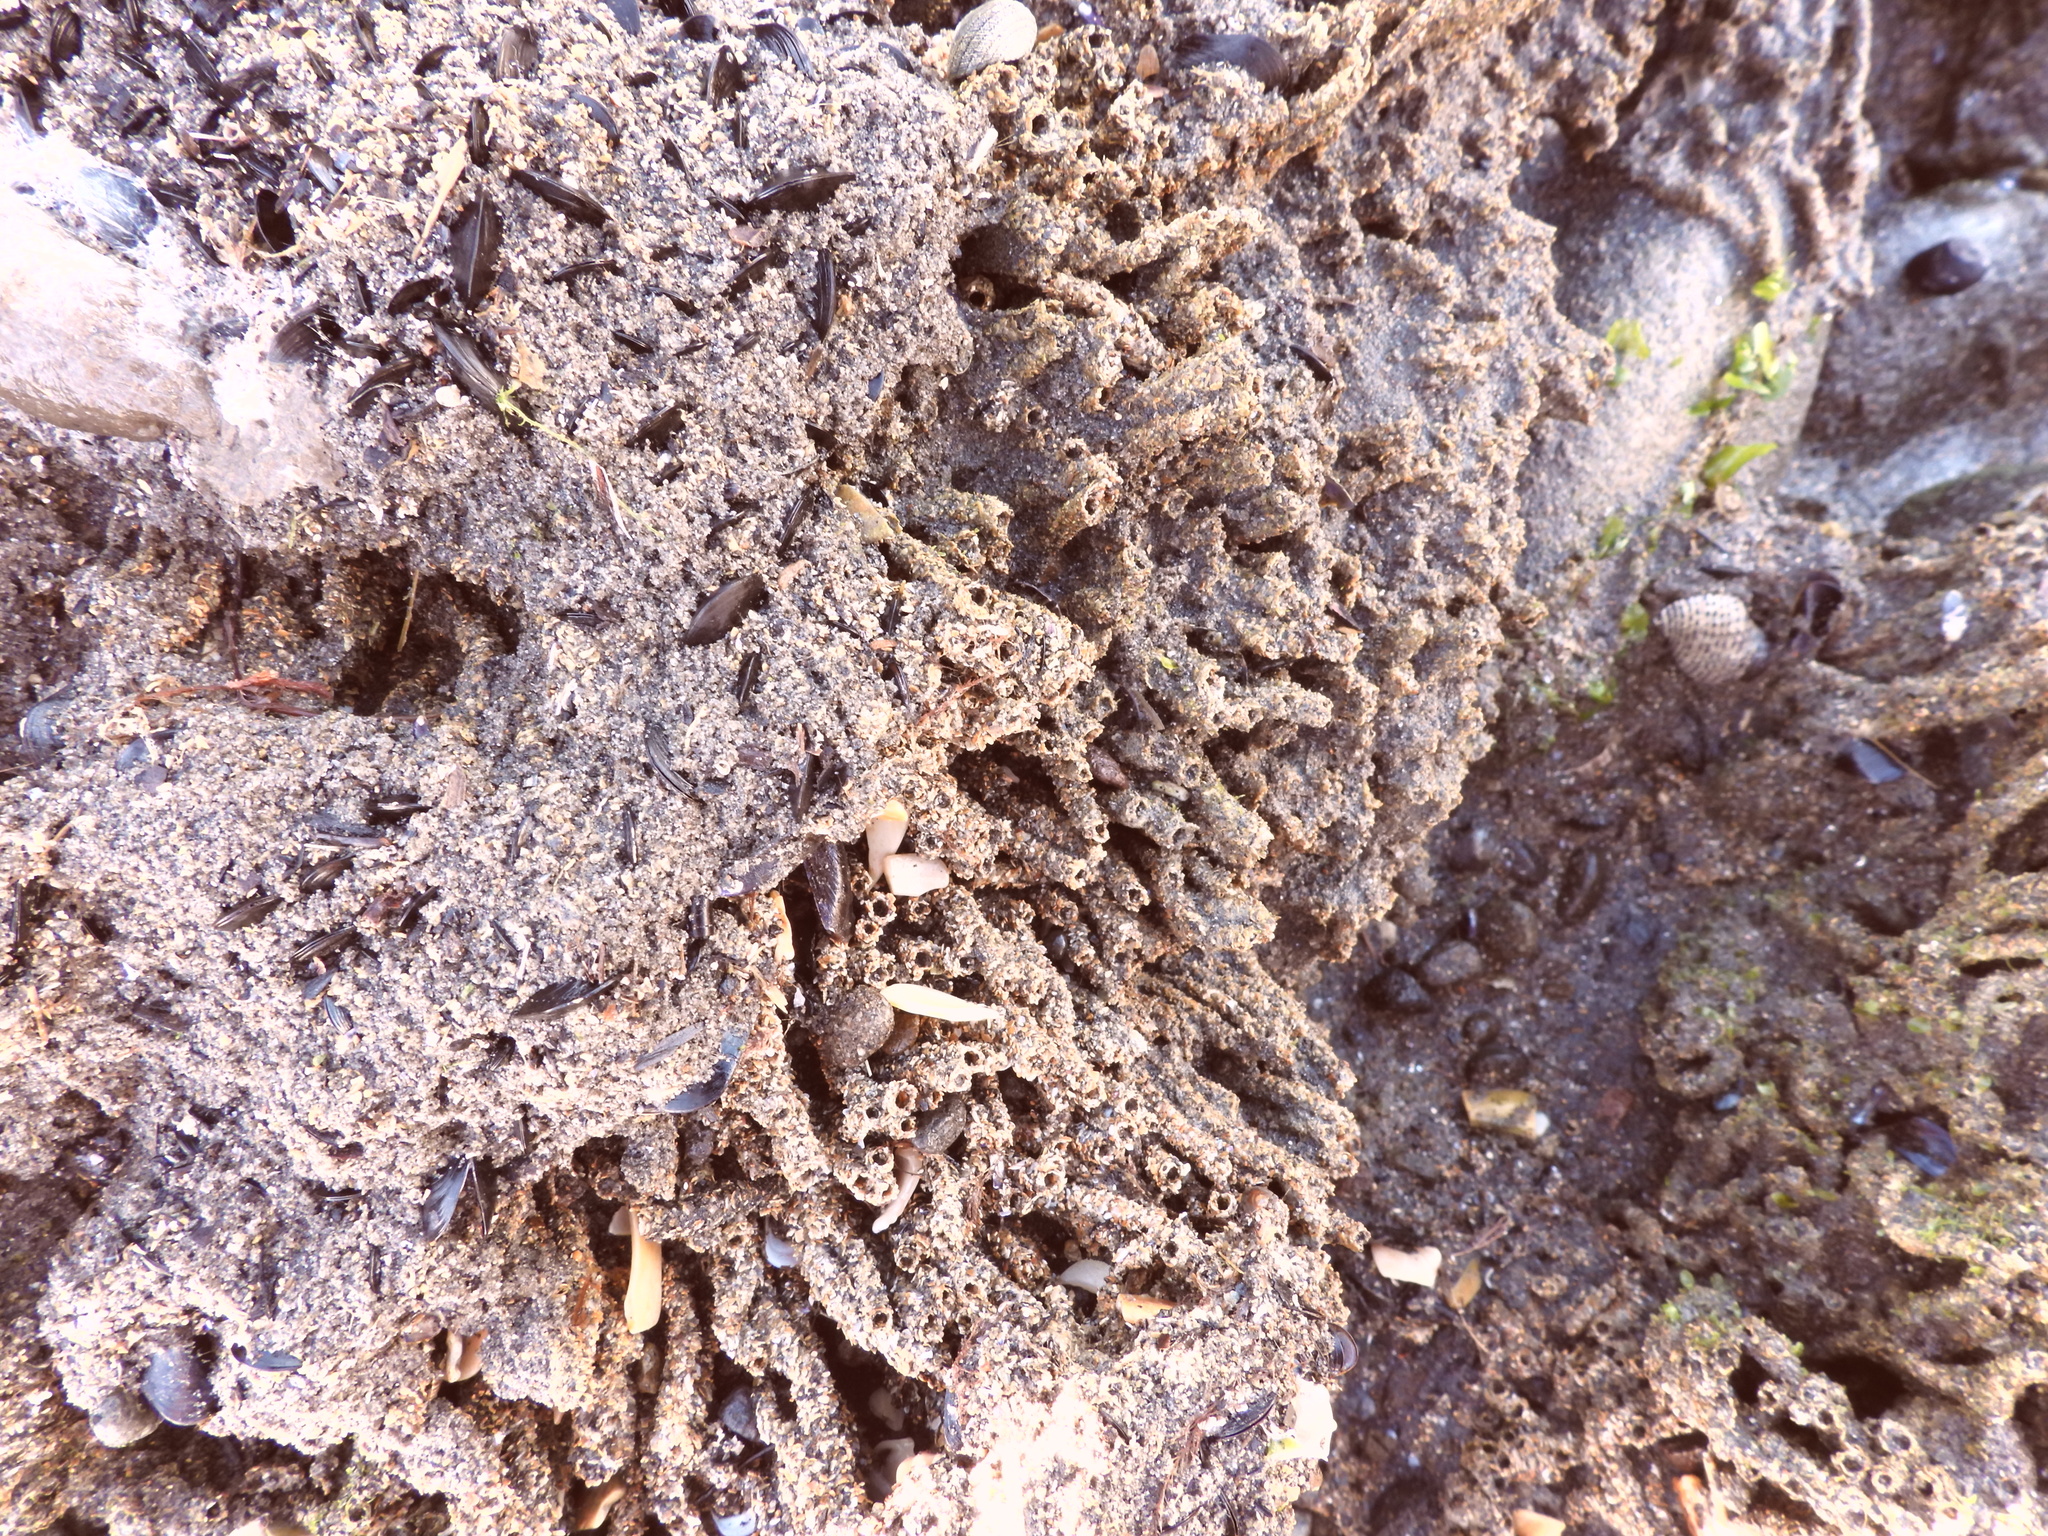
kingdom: Animalia
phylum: Annelida
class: Polychaeta
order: Sabellida
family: Sabellariidae
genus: Neosabellaria
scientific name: Neosabellaria kaiparaensis
